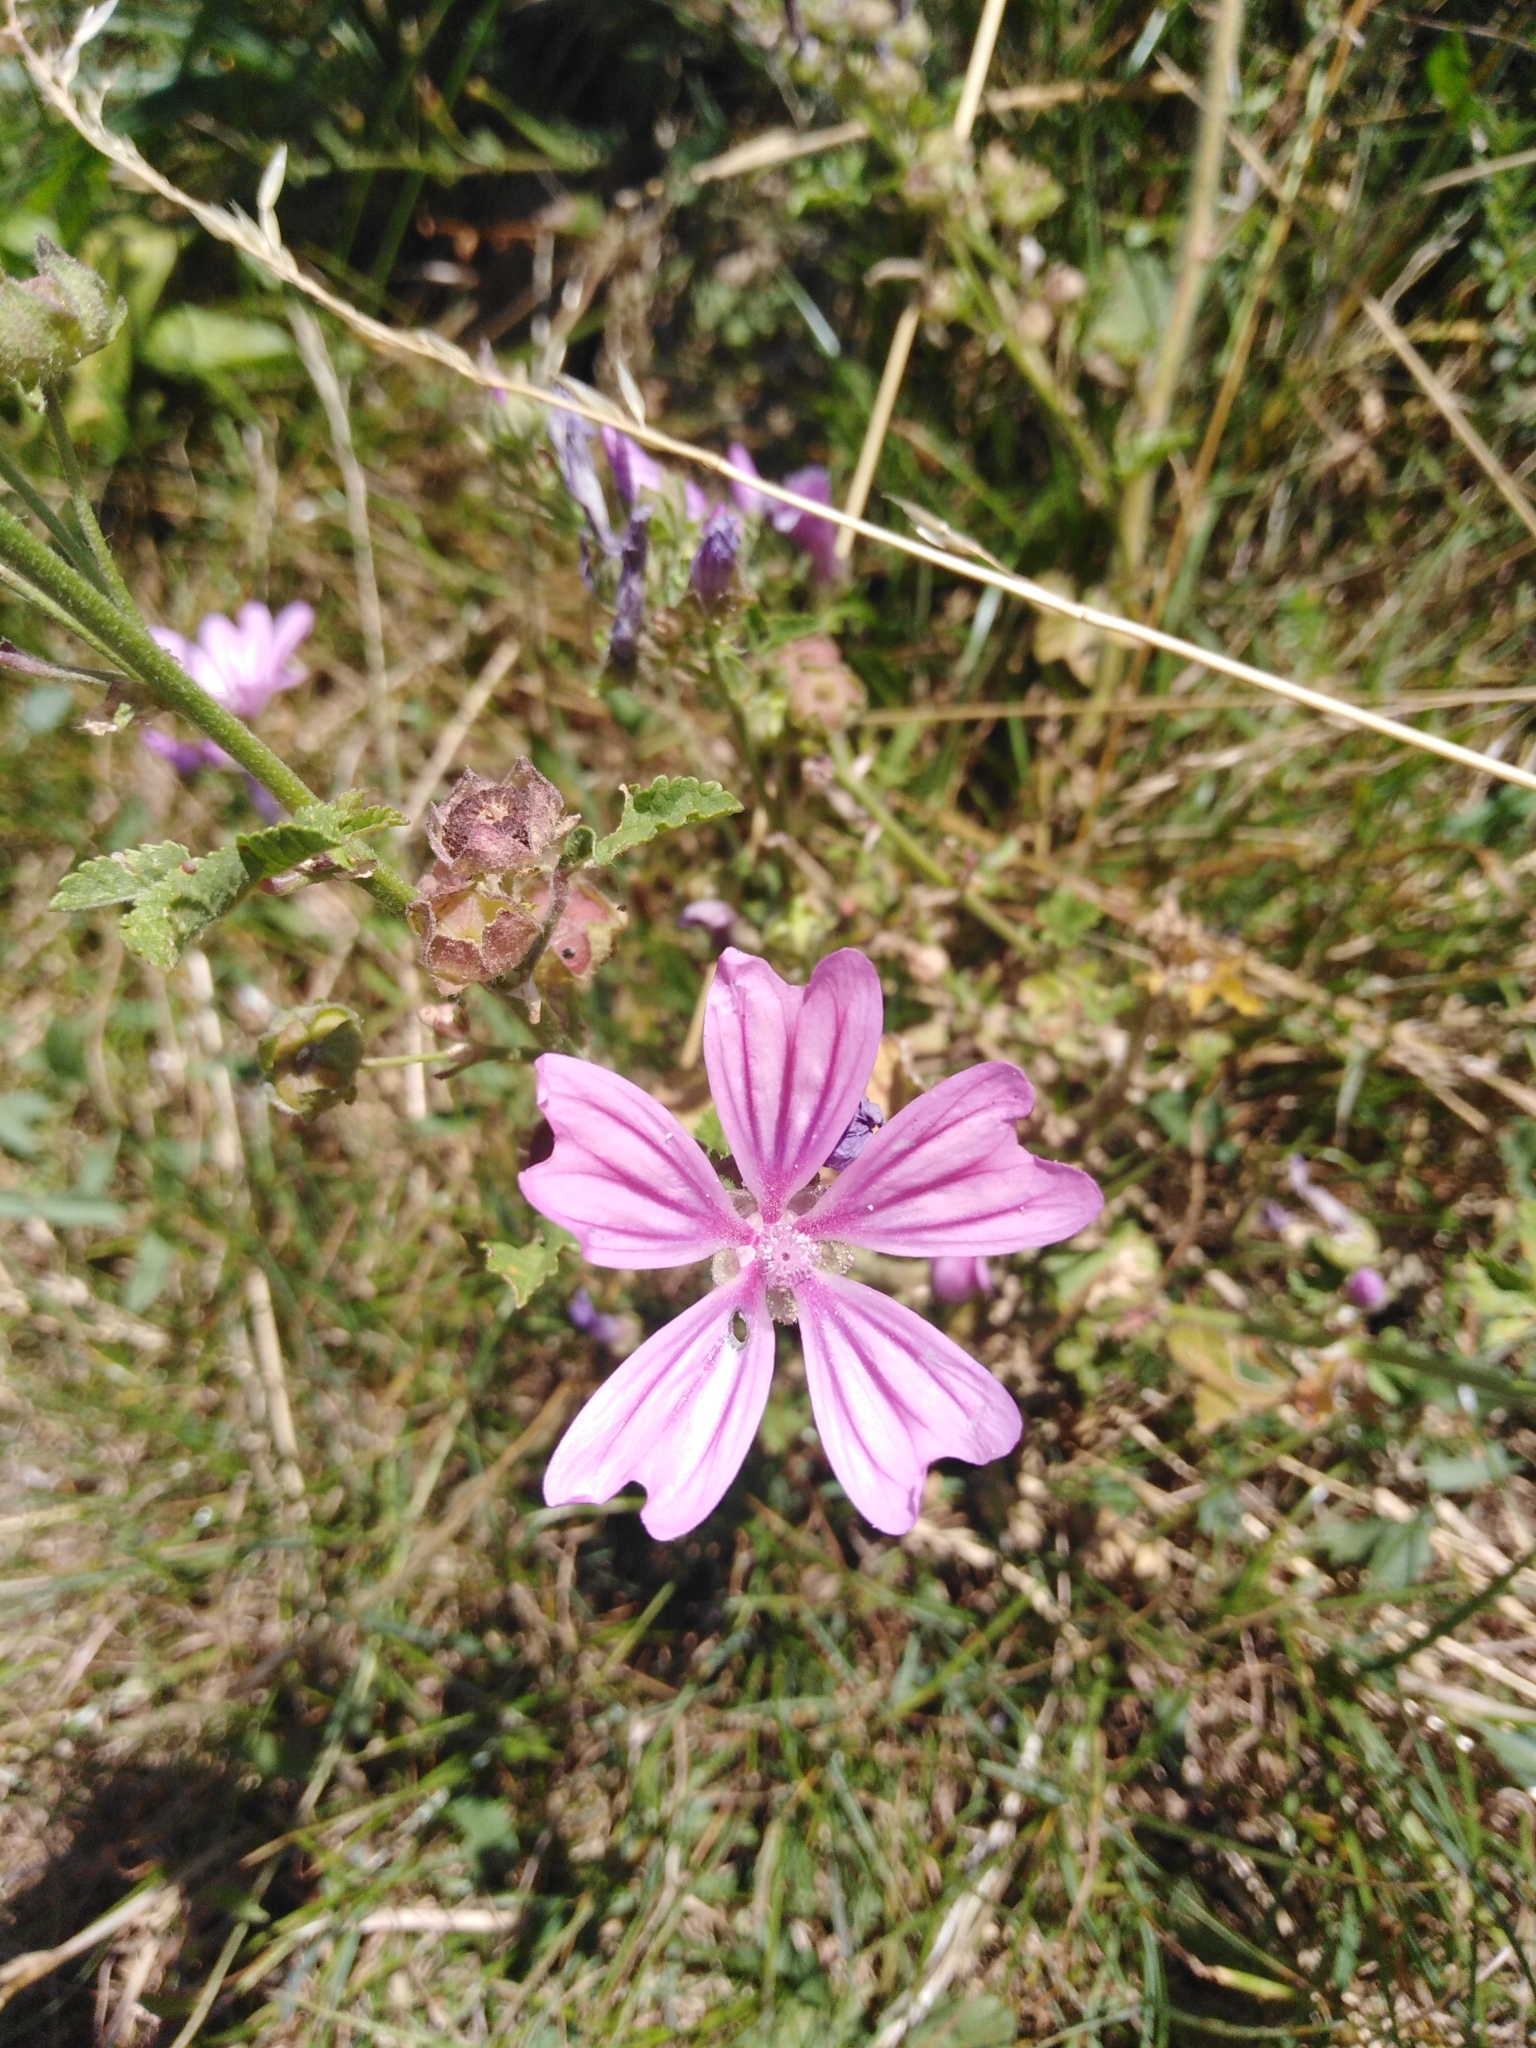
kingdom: Plantae
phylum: Tracheophyta
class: Magnoliopsida
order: Malvales
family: Malvaceae
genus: Malva
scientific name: Malva sylvestris
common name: Common mallow
